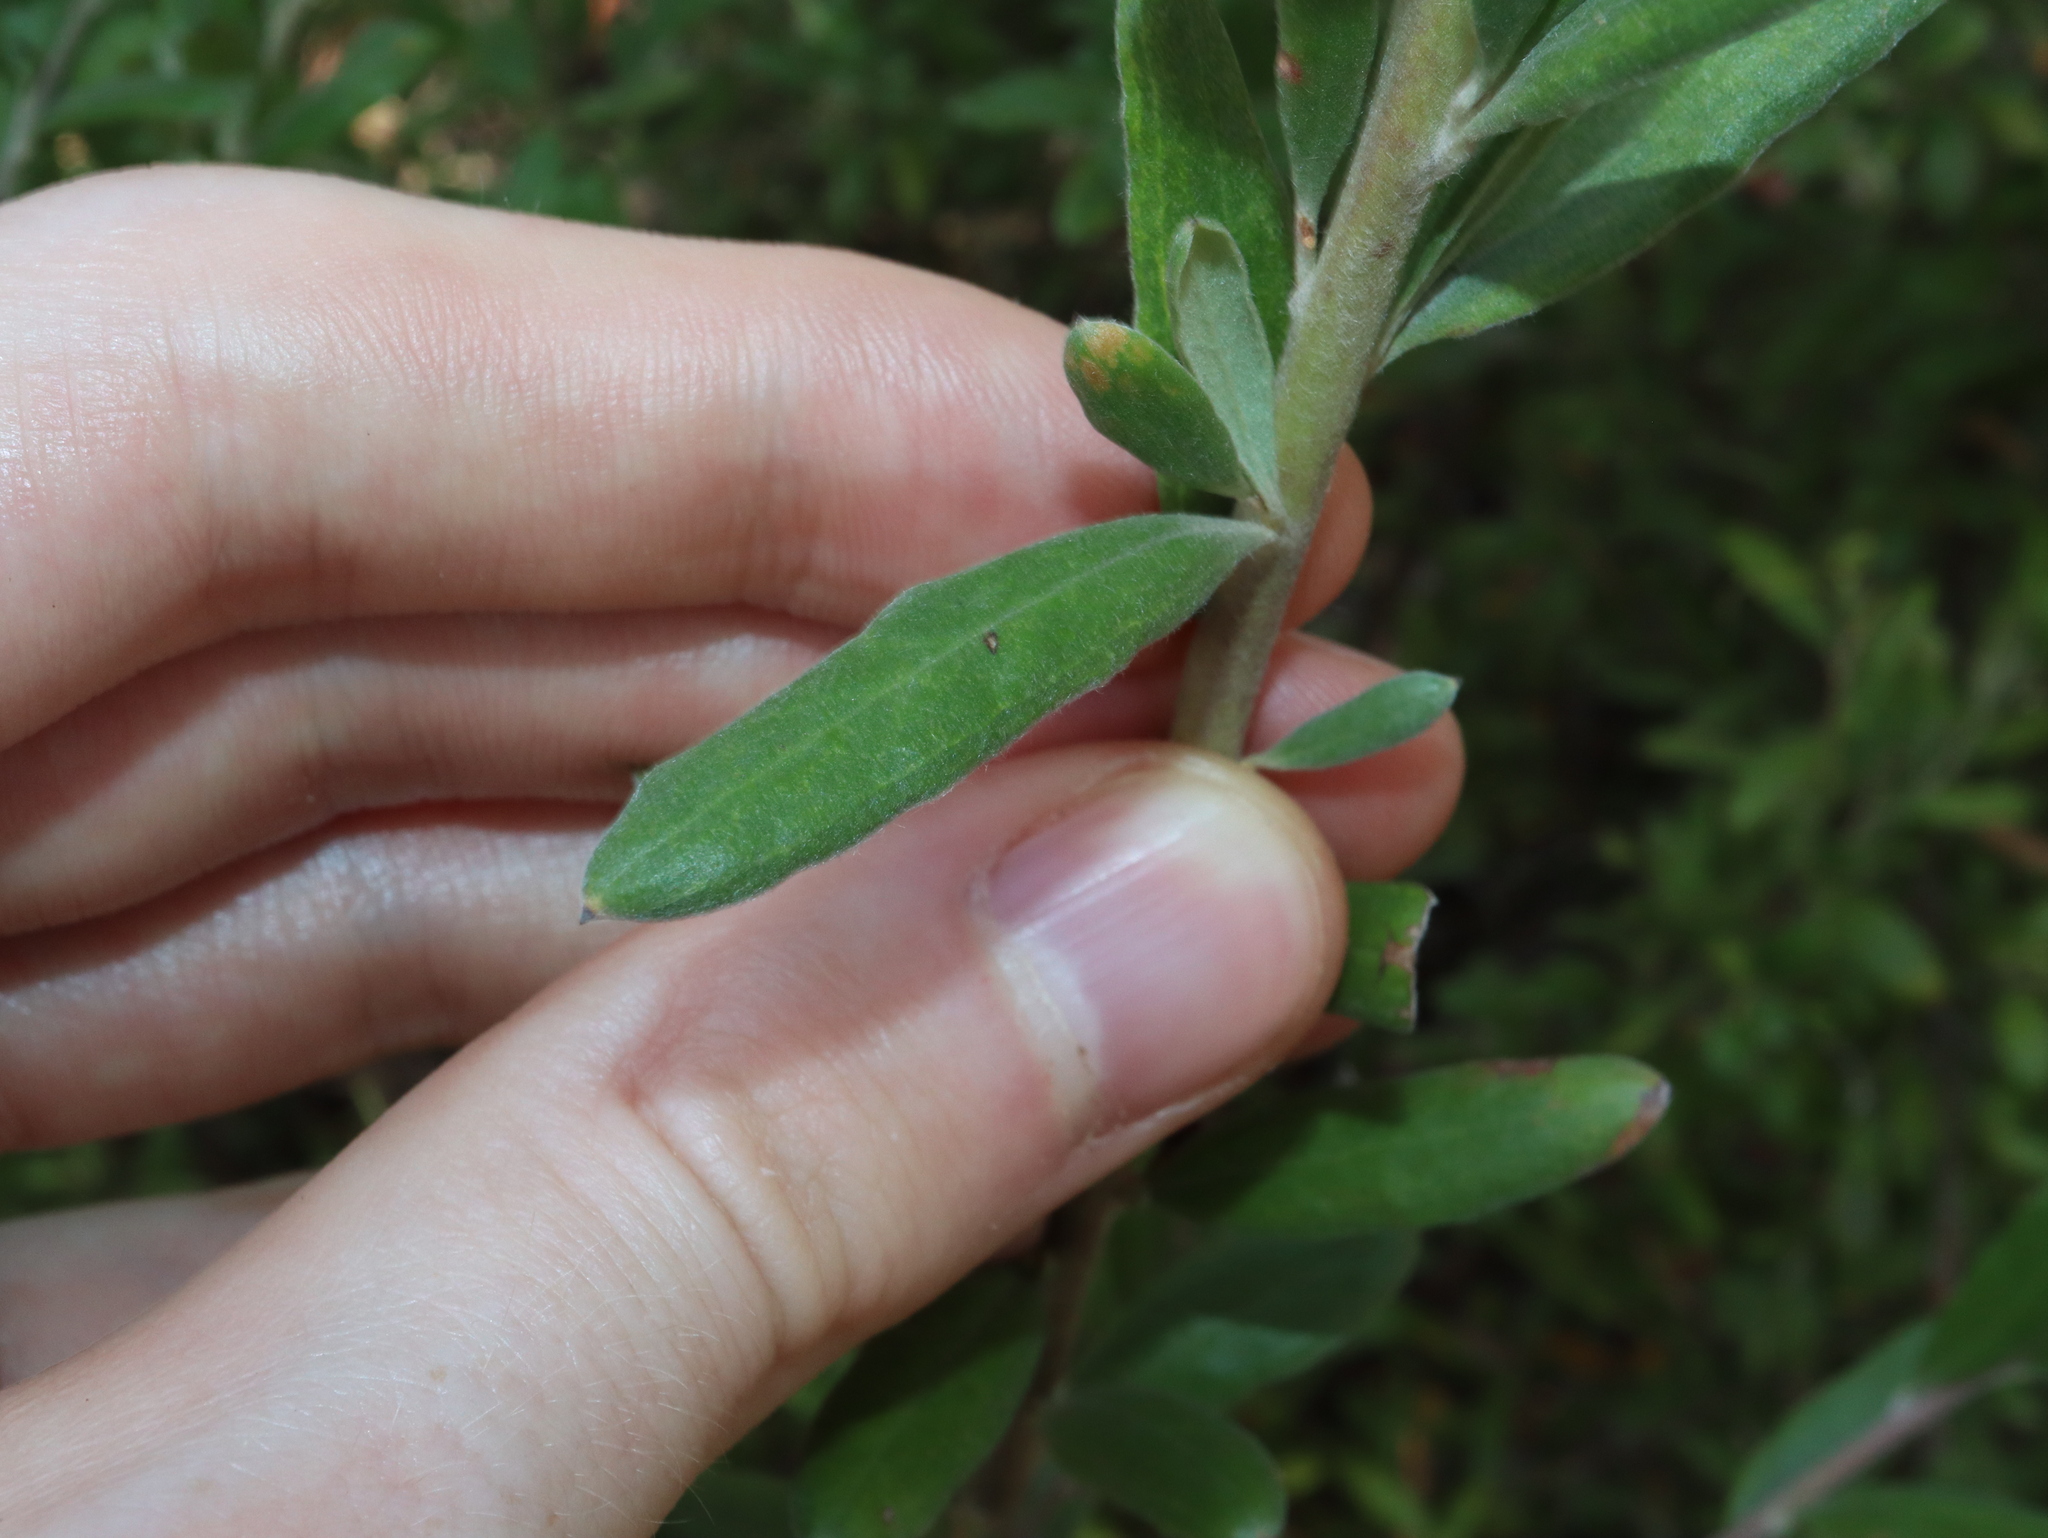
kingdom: Plantae
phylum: Tracheophyta
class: Magnoliopsida
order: Proteales
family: Proteaceae
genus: Grevillea
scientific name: Grevillea arenaria
